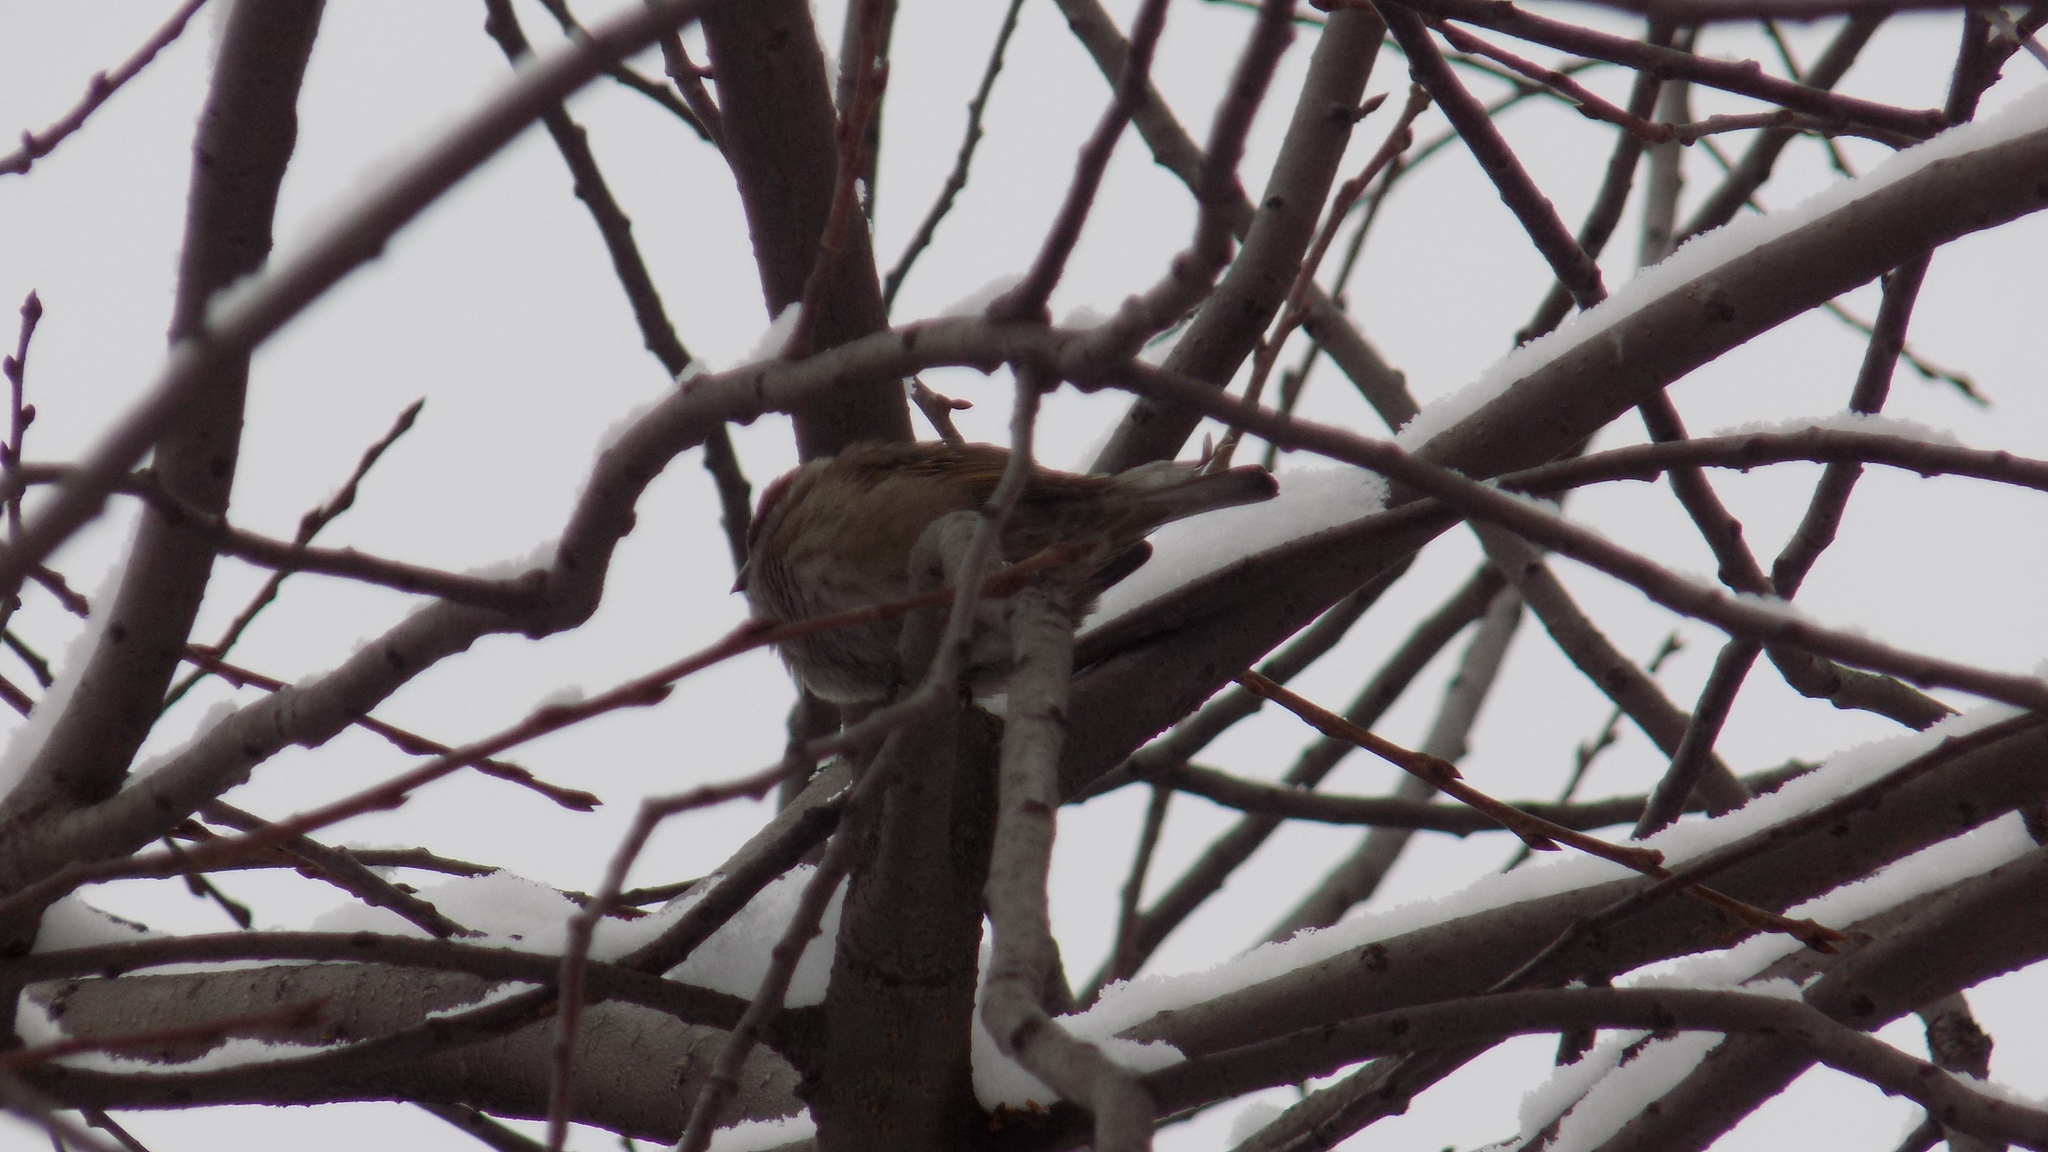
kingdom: Animalia
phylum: Chordata
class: Aves
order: Passeriformes
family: Passeridae
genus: Passer
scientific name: Passer montanus
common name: Eurasian tree sparrow
